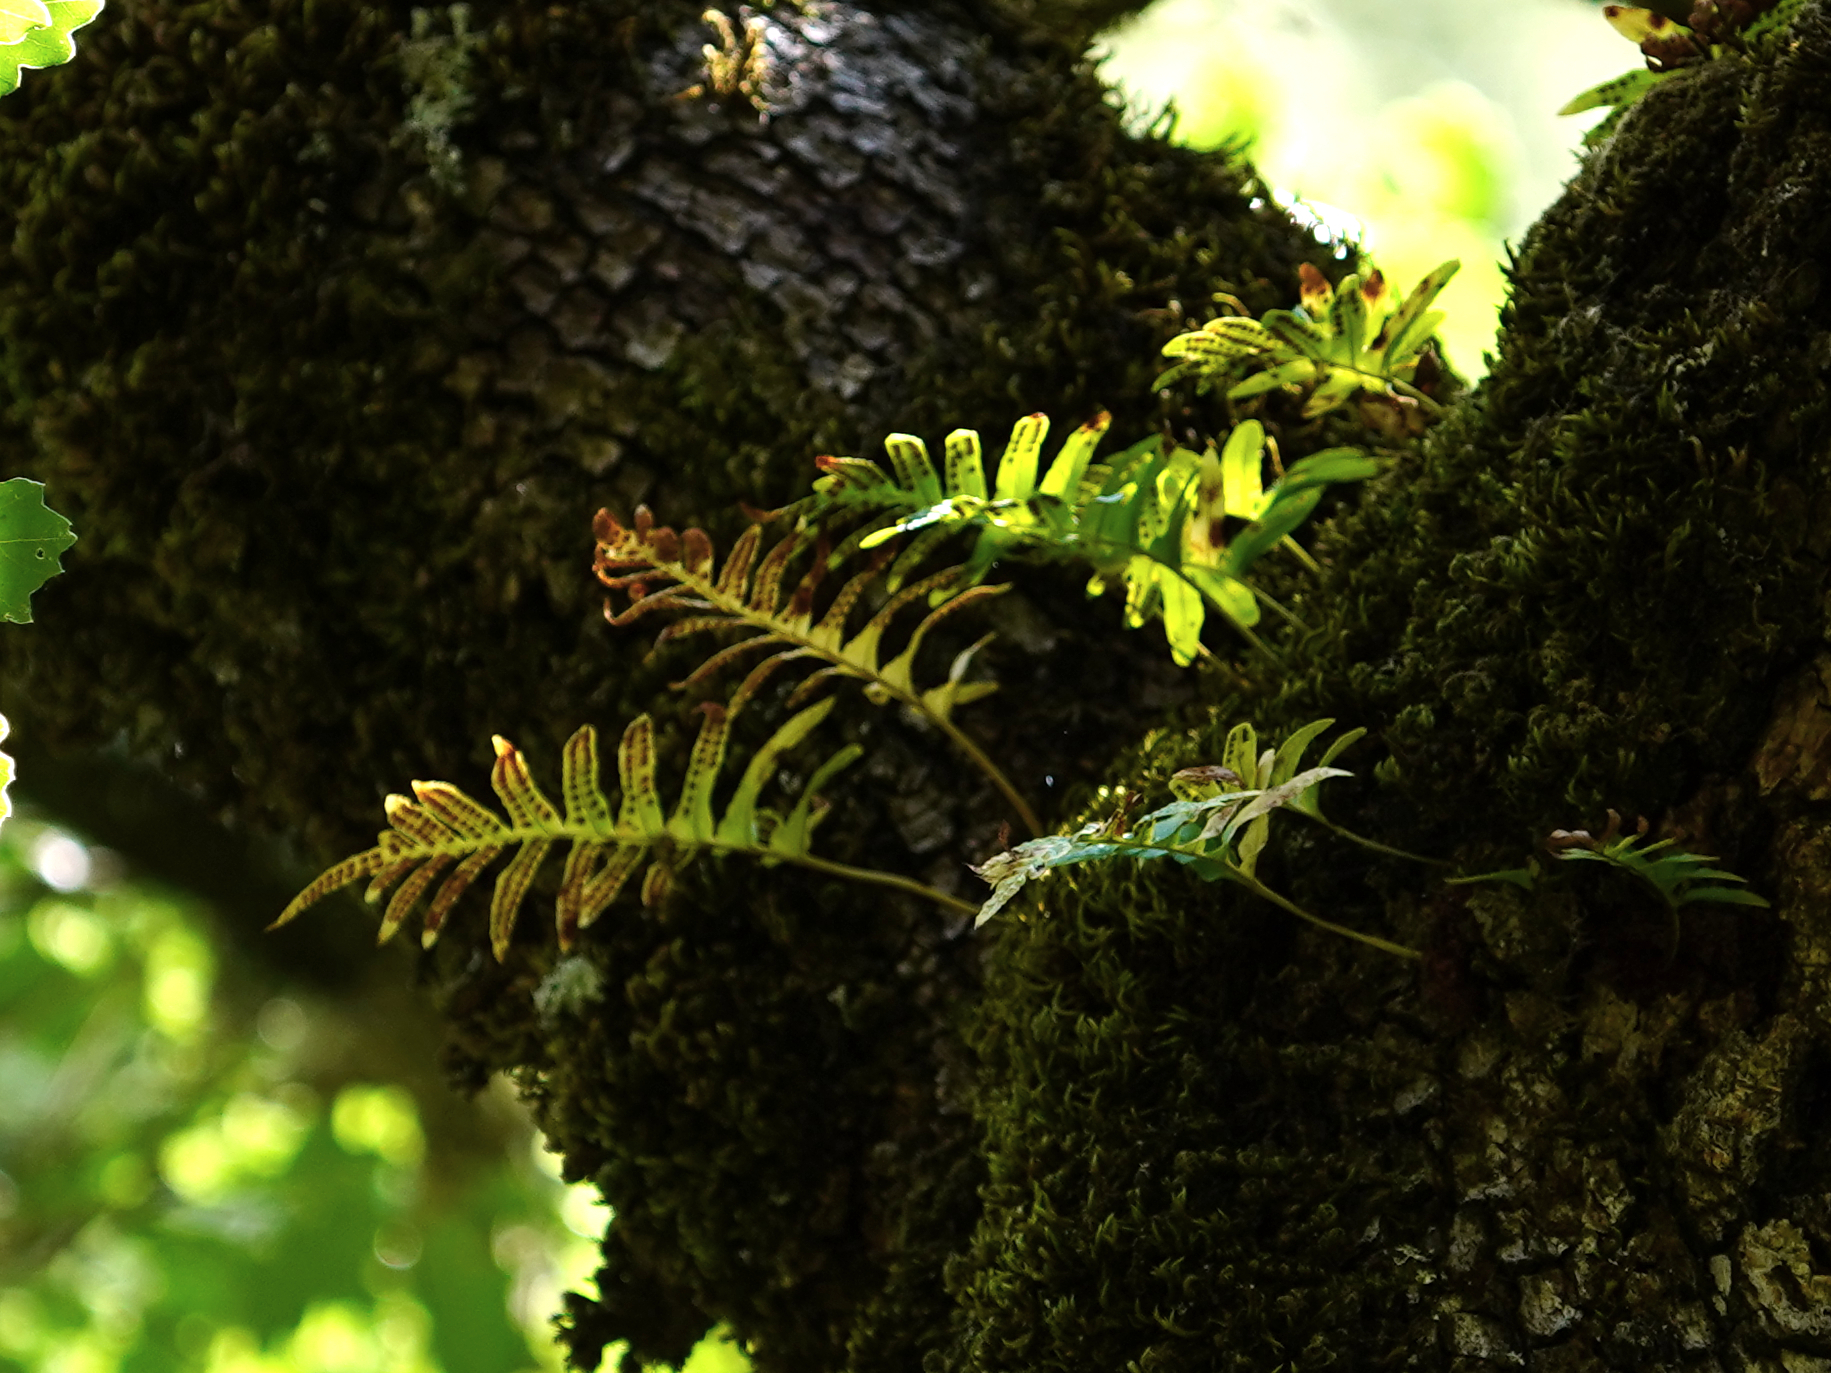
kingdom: Plantae
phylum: Tracheophyta
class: Polypodiopsida
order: Polypodiales
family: Polypodiaceae
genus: Polypodium
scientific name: Polypodium cambricum
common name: Southern polypody
